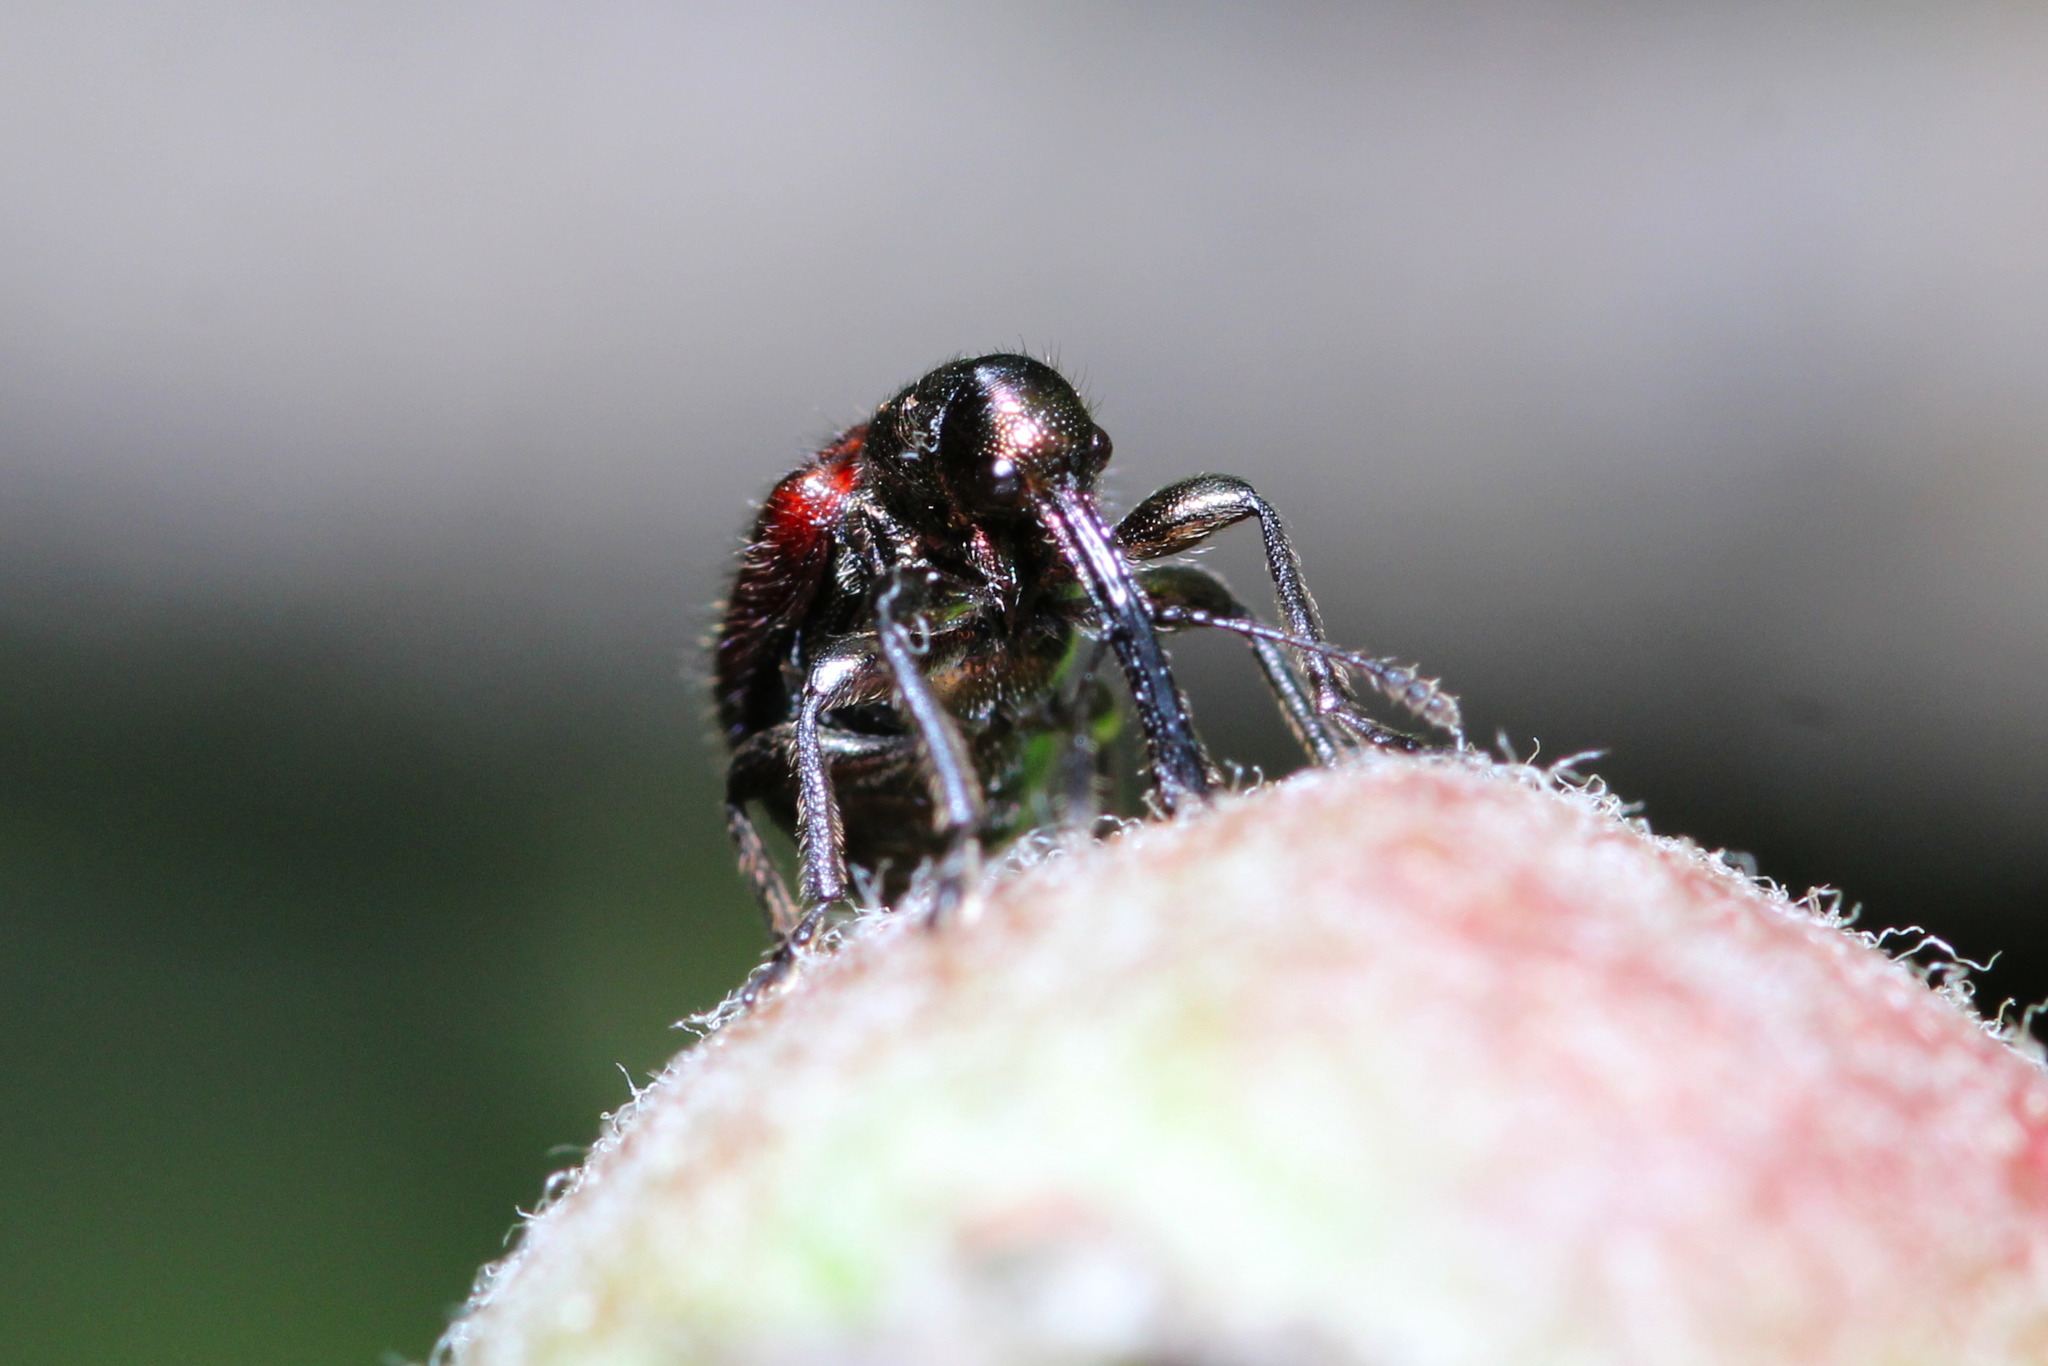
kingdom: Animalia
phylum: Arthropoda
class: Insecta
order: Coleoptera
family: Rhynchitidae
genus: Tatianaerhynchites
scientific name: Tatianaerhynchites aequatus
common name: Apple fruit rhynchites
